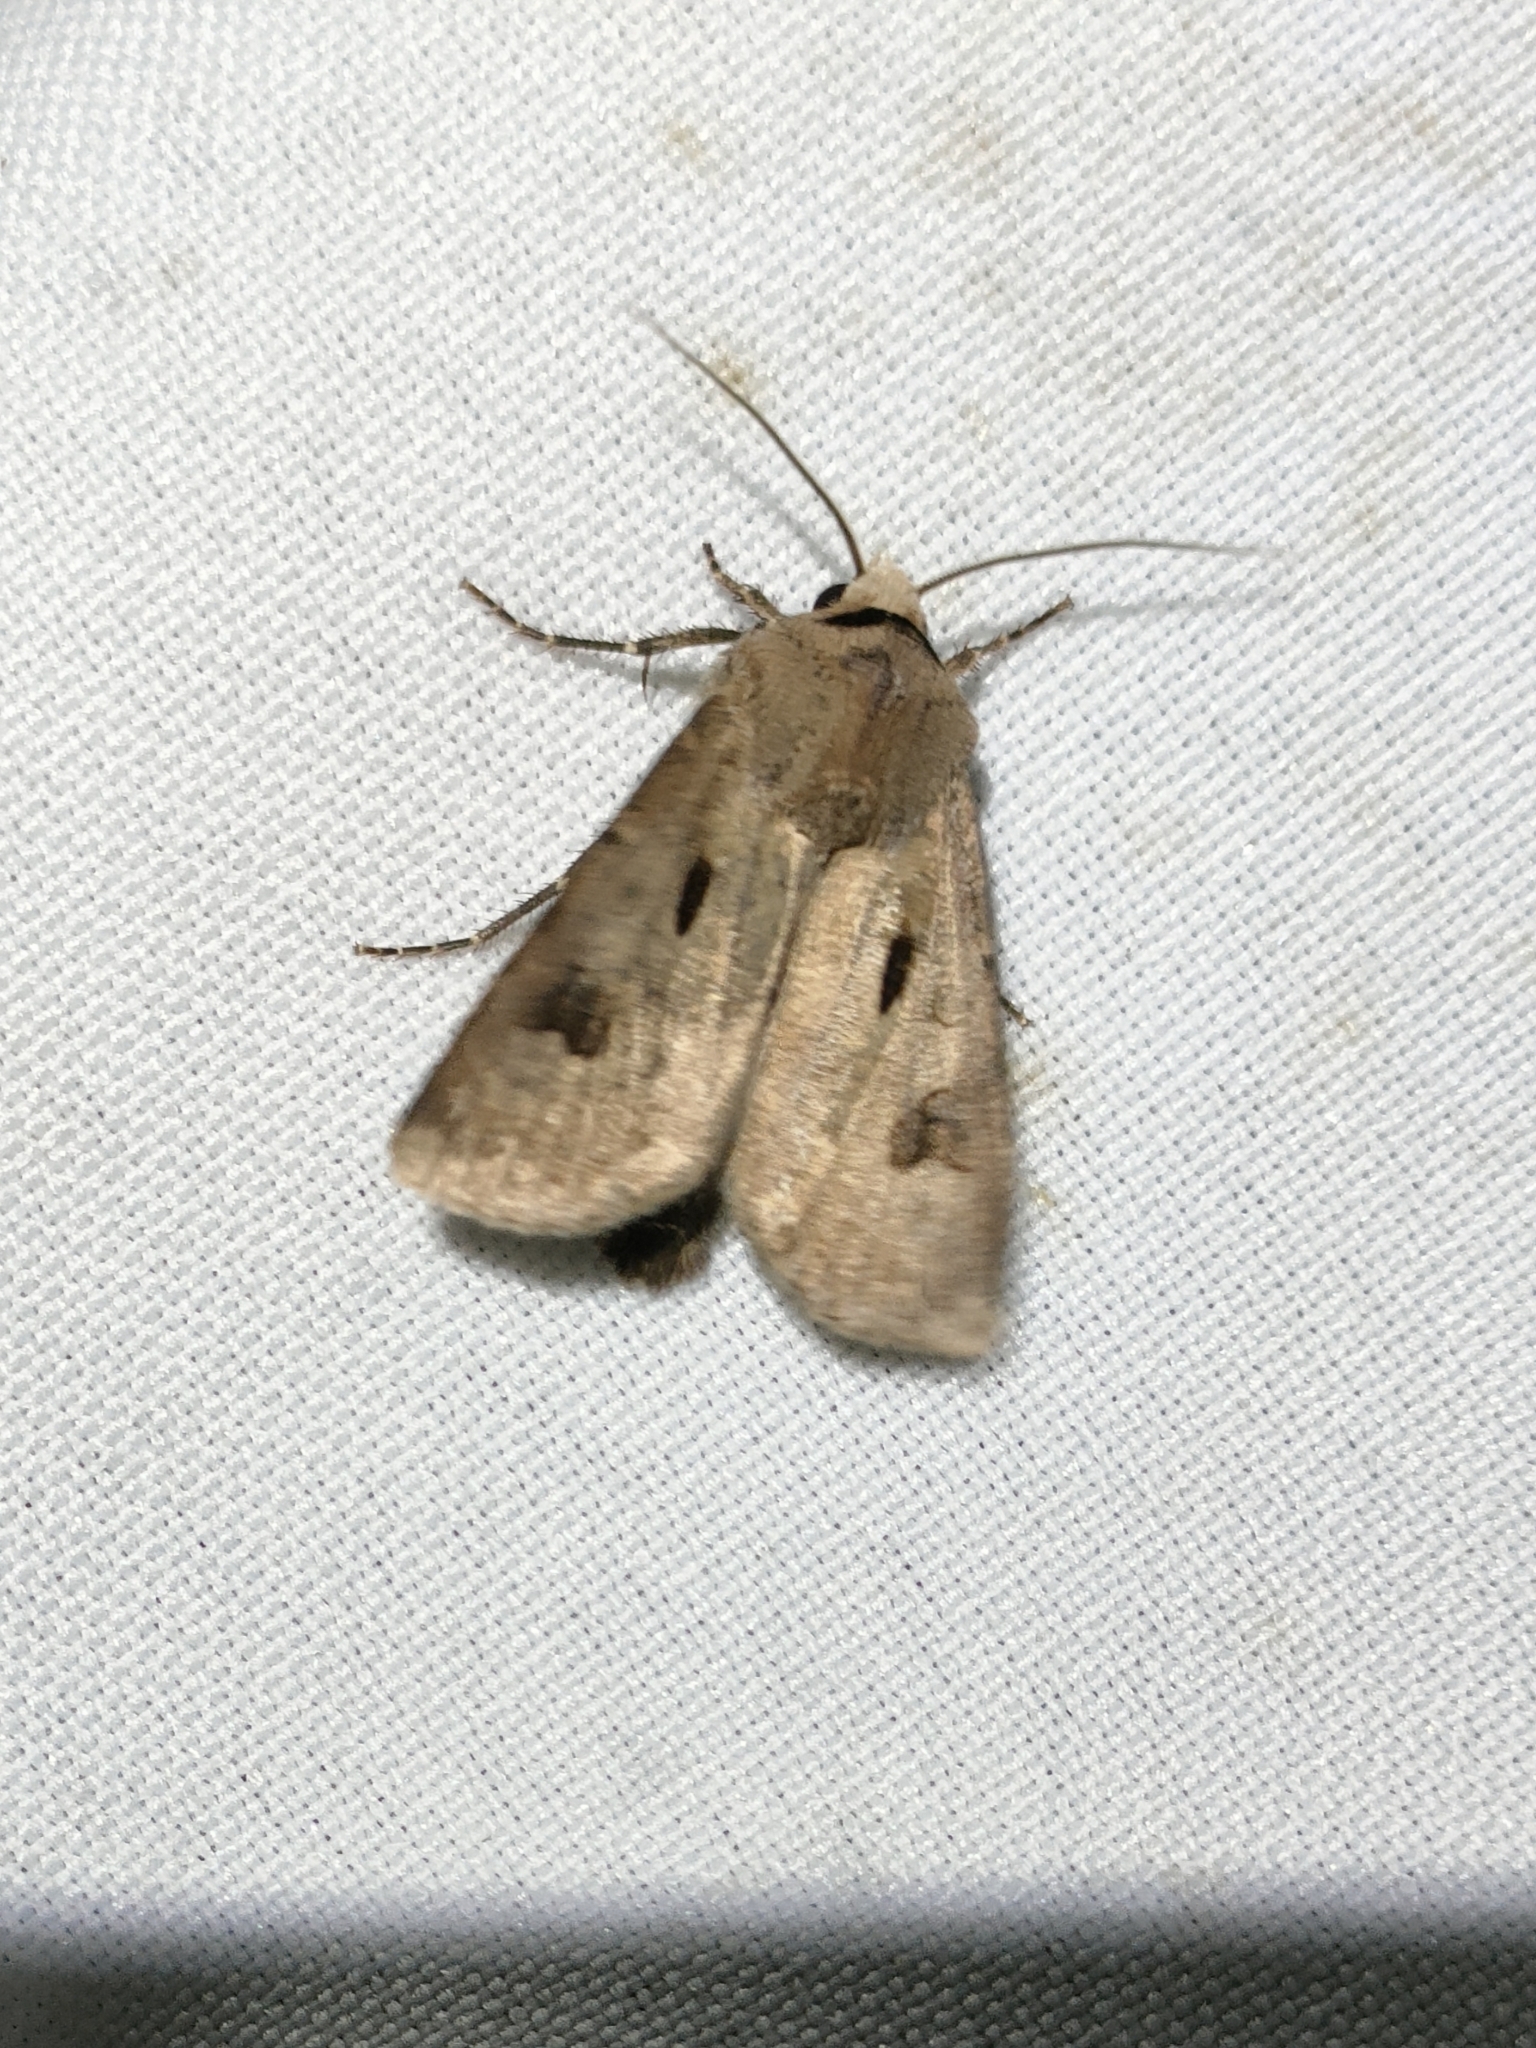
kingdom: Animalia
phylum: Arthropoda
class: Insecta
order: Lepidoptera
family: Noctuidae
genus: Agrotis
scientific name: Agrotis exclamationis
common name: Heart and dart
